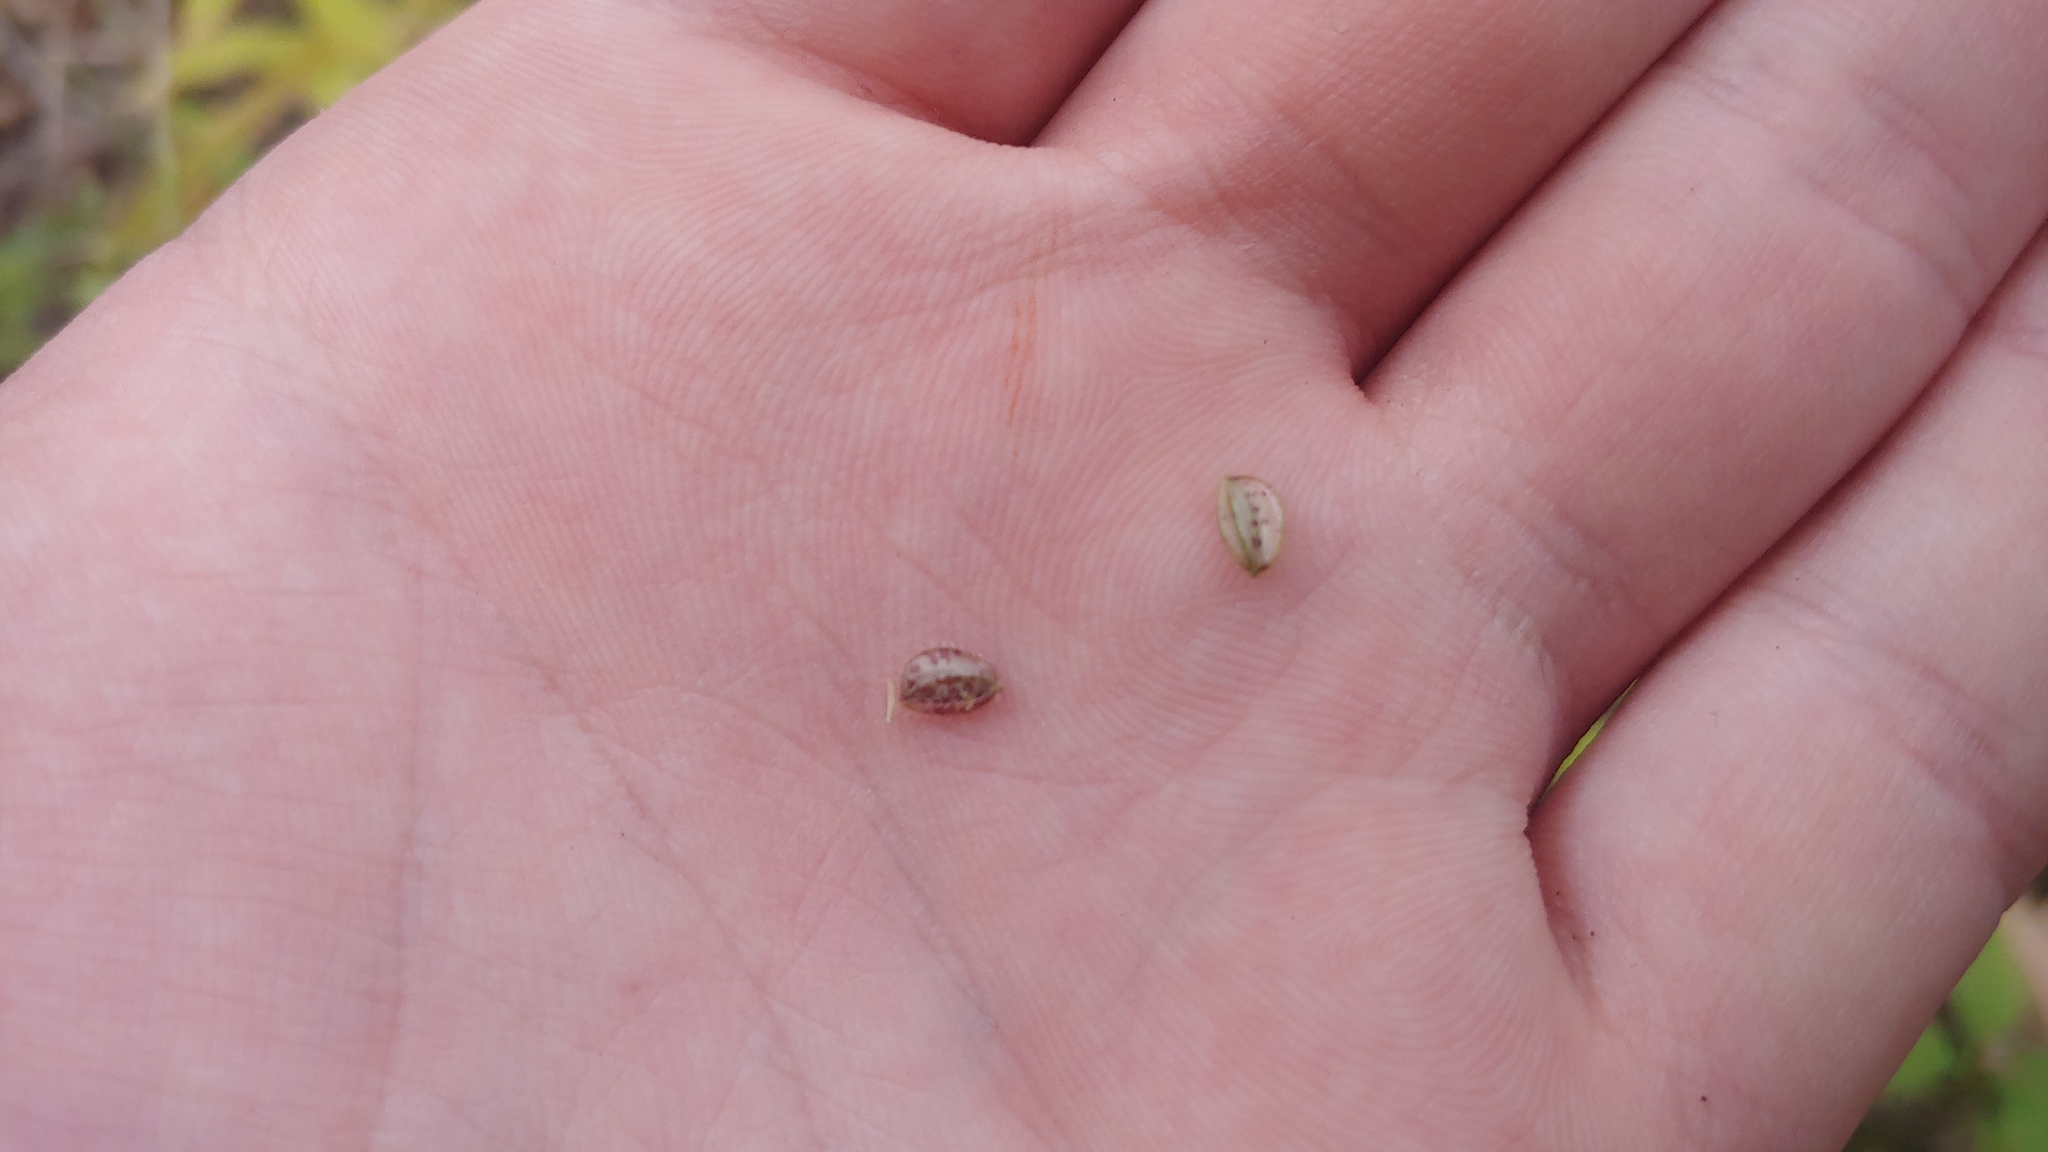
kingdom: Plantae
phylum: Tracheophyta
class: Liliopsida
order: Poales
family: Poaceae
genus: Leersia
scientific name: Leersia lenticularis
